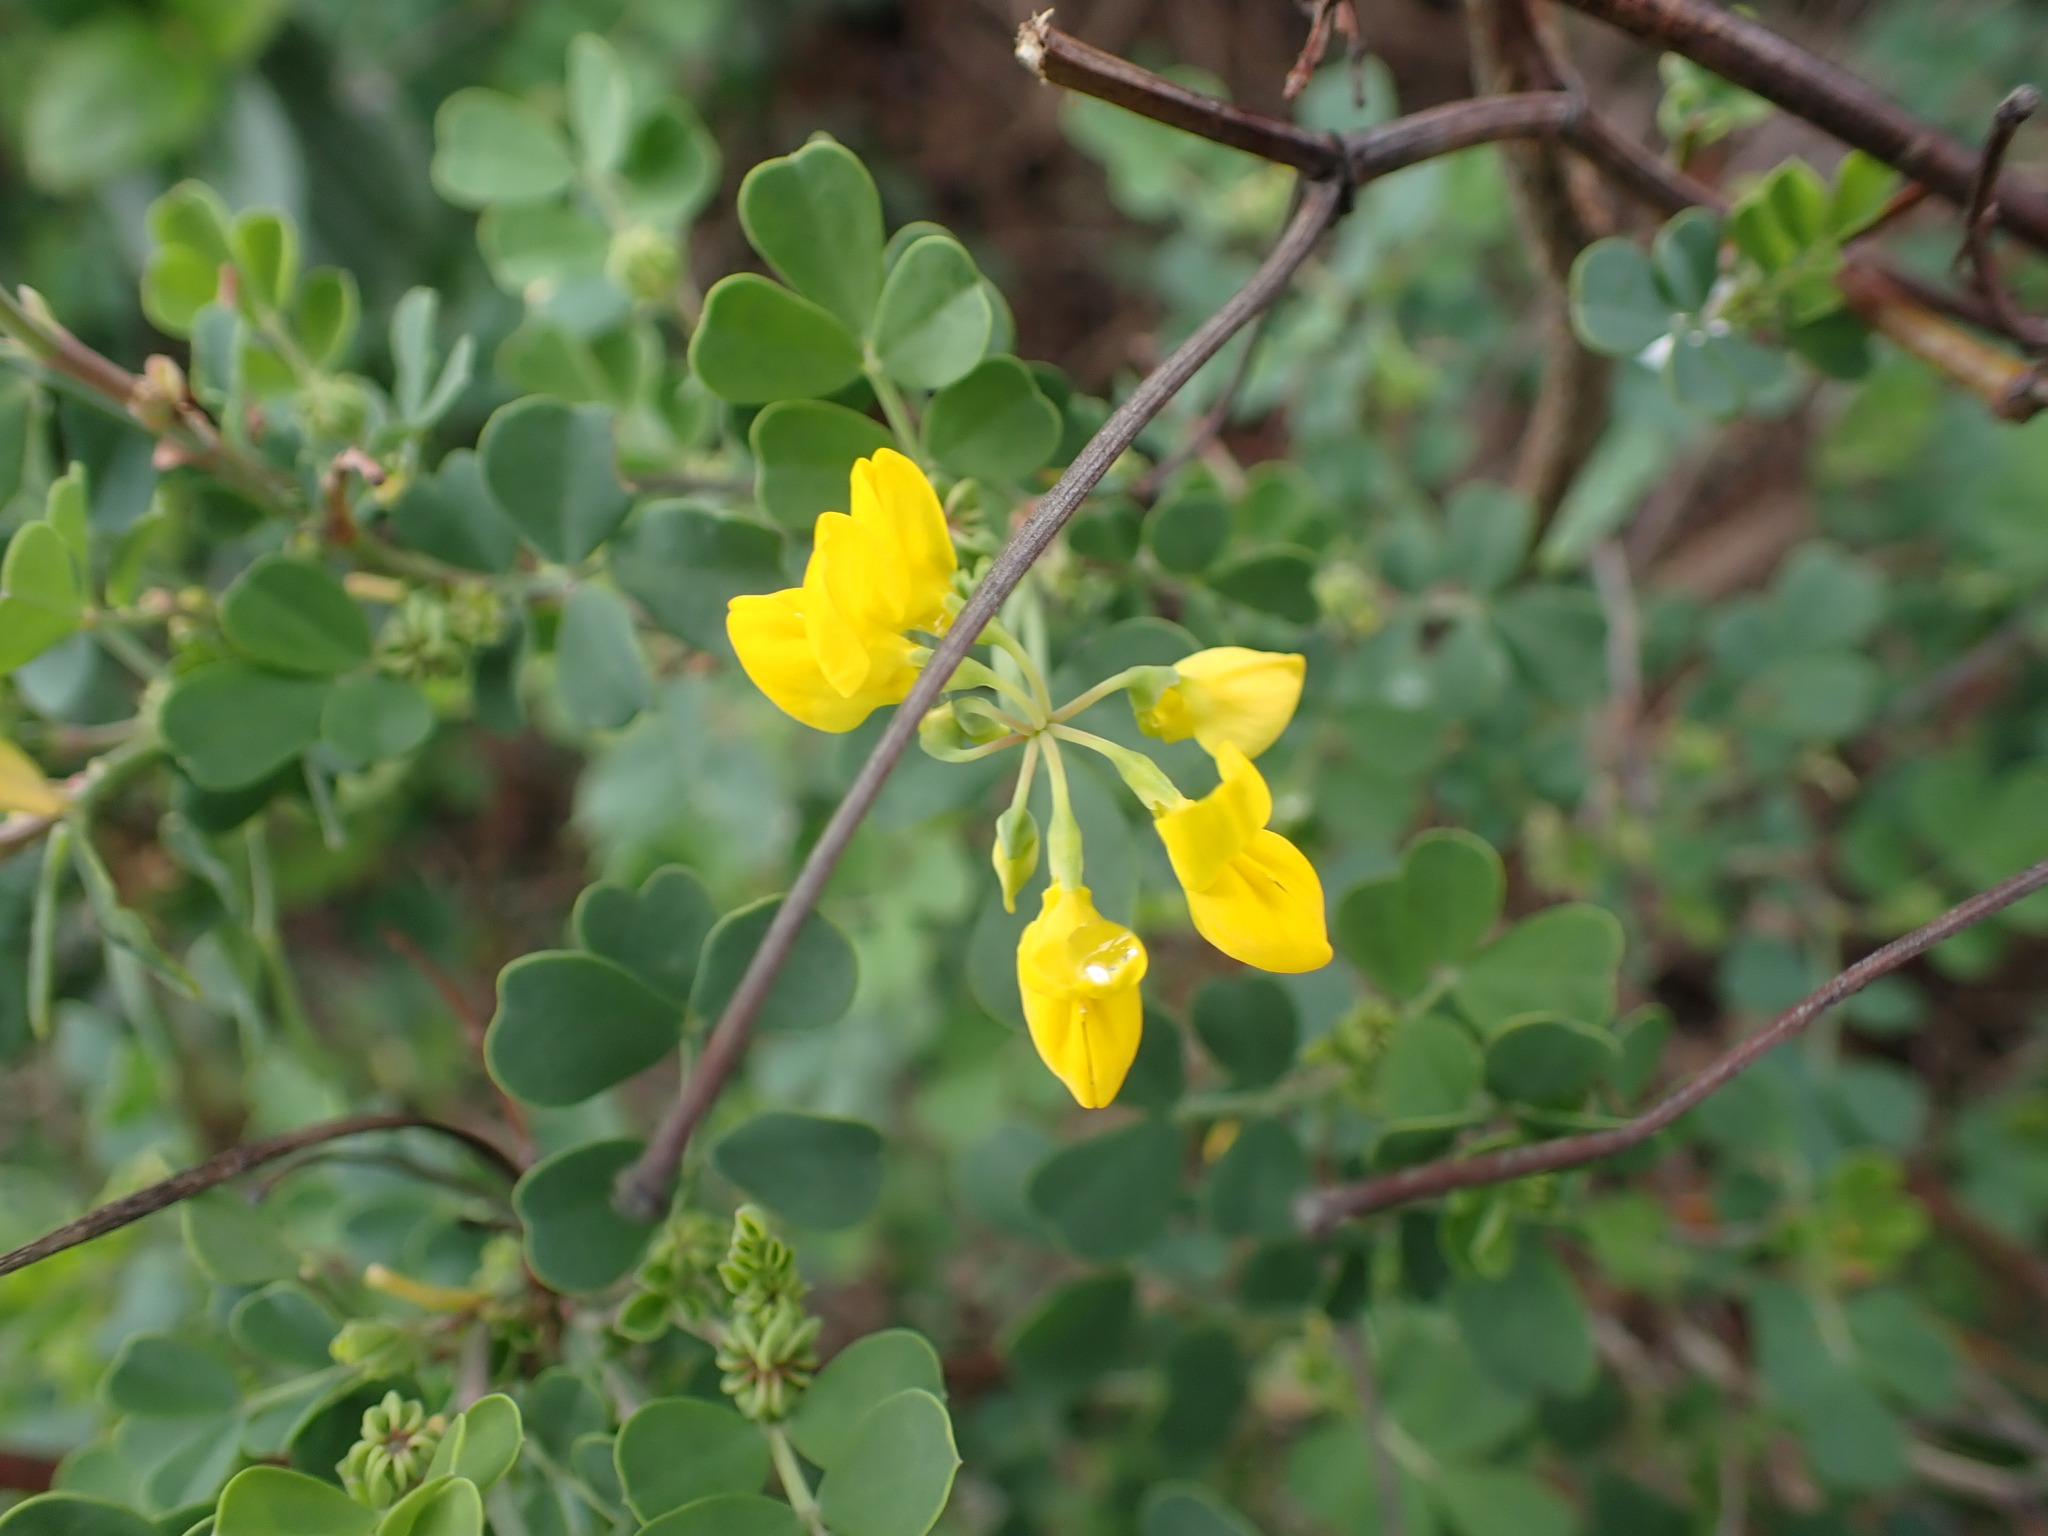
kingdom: Plantae
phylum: Tracheophyta
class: Magnoliopsida
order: Fabales
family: Fabaceae
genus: Coronilla
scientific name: Coronilla valentina
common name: Shrubby scorpion-vetch
